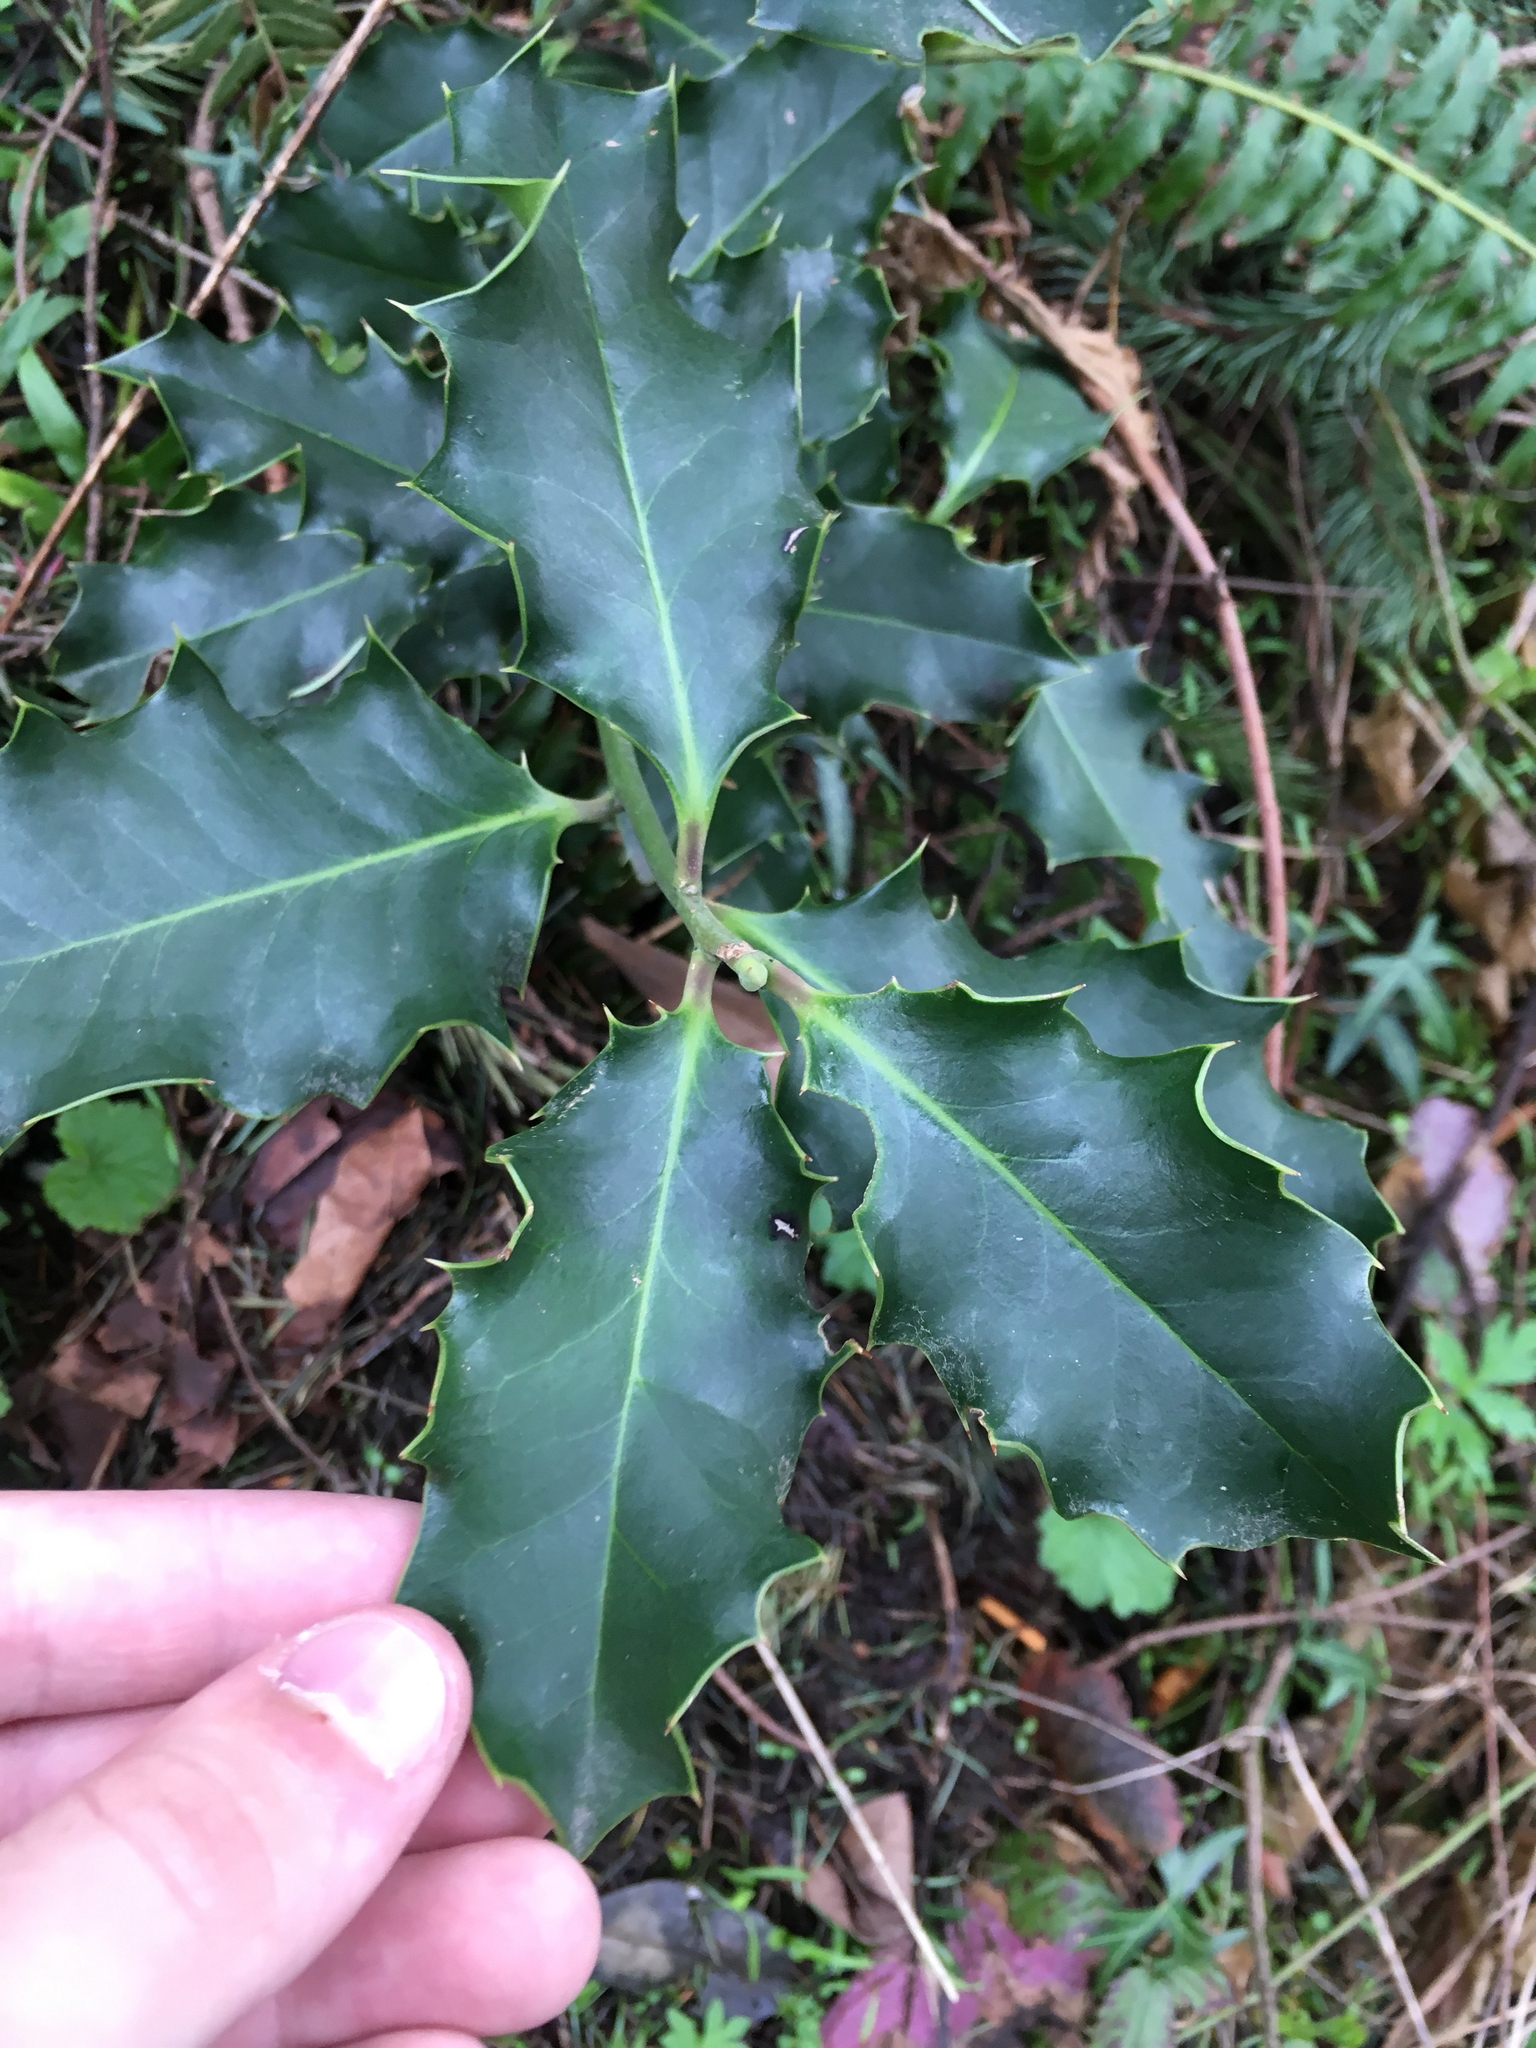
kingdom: Plantae
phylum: Tracheophyta
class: Magnoliopsida
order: Aquifoliales
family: Aquifoliaceae
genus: Ilex
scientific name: Ilex aquifolium
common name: English holly
